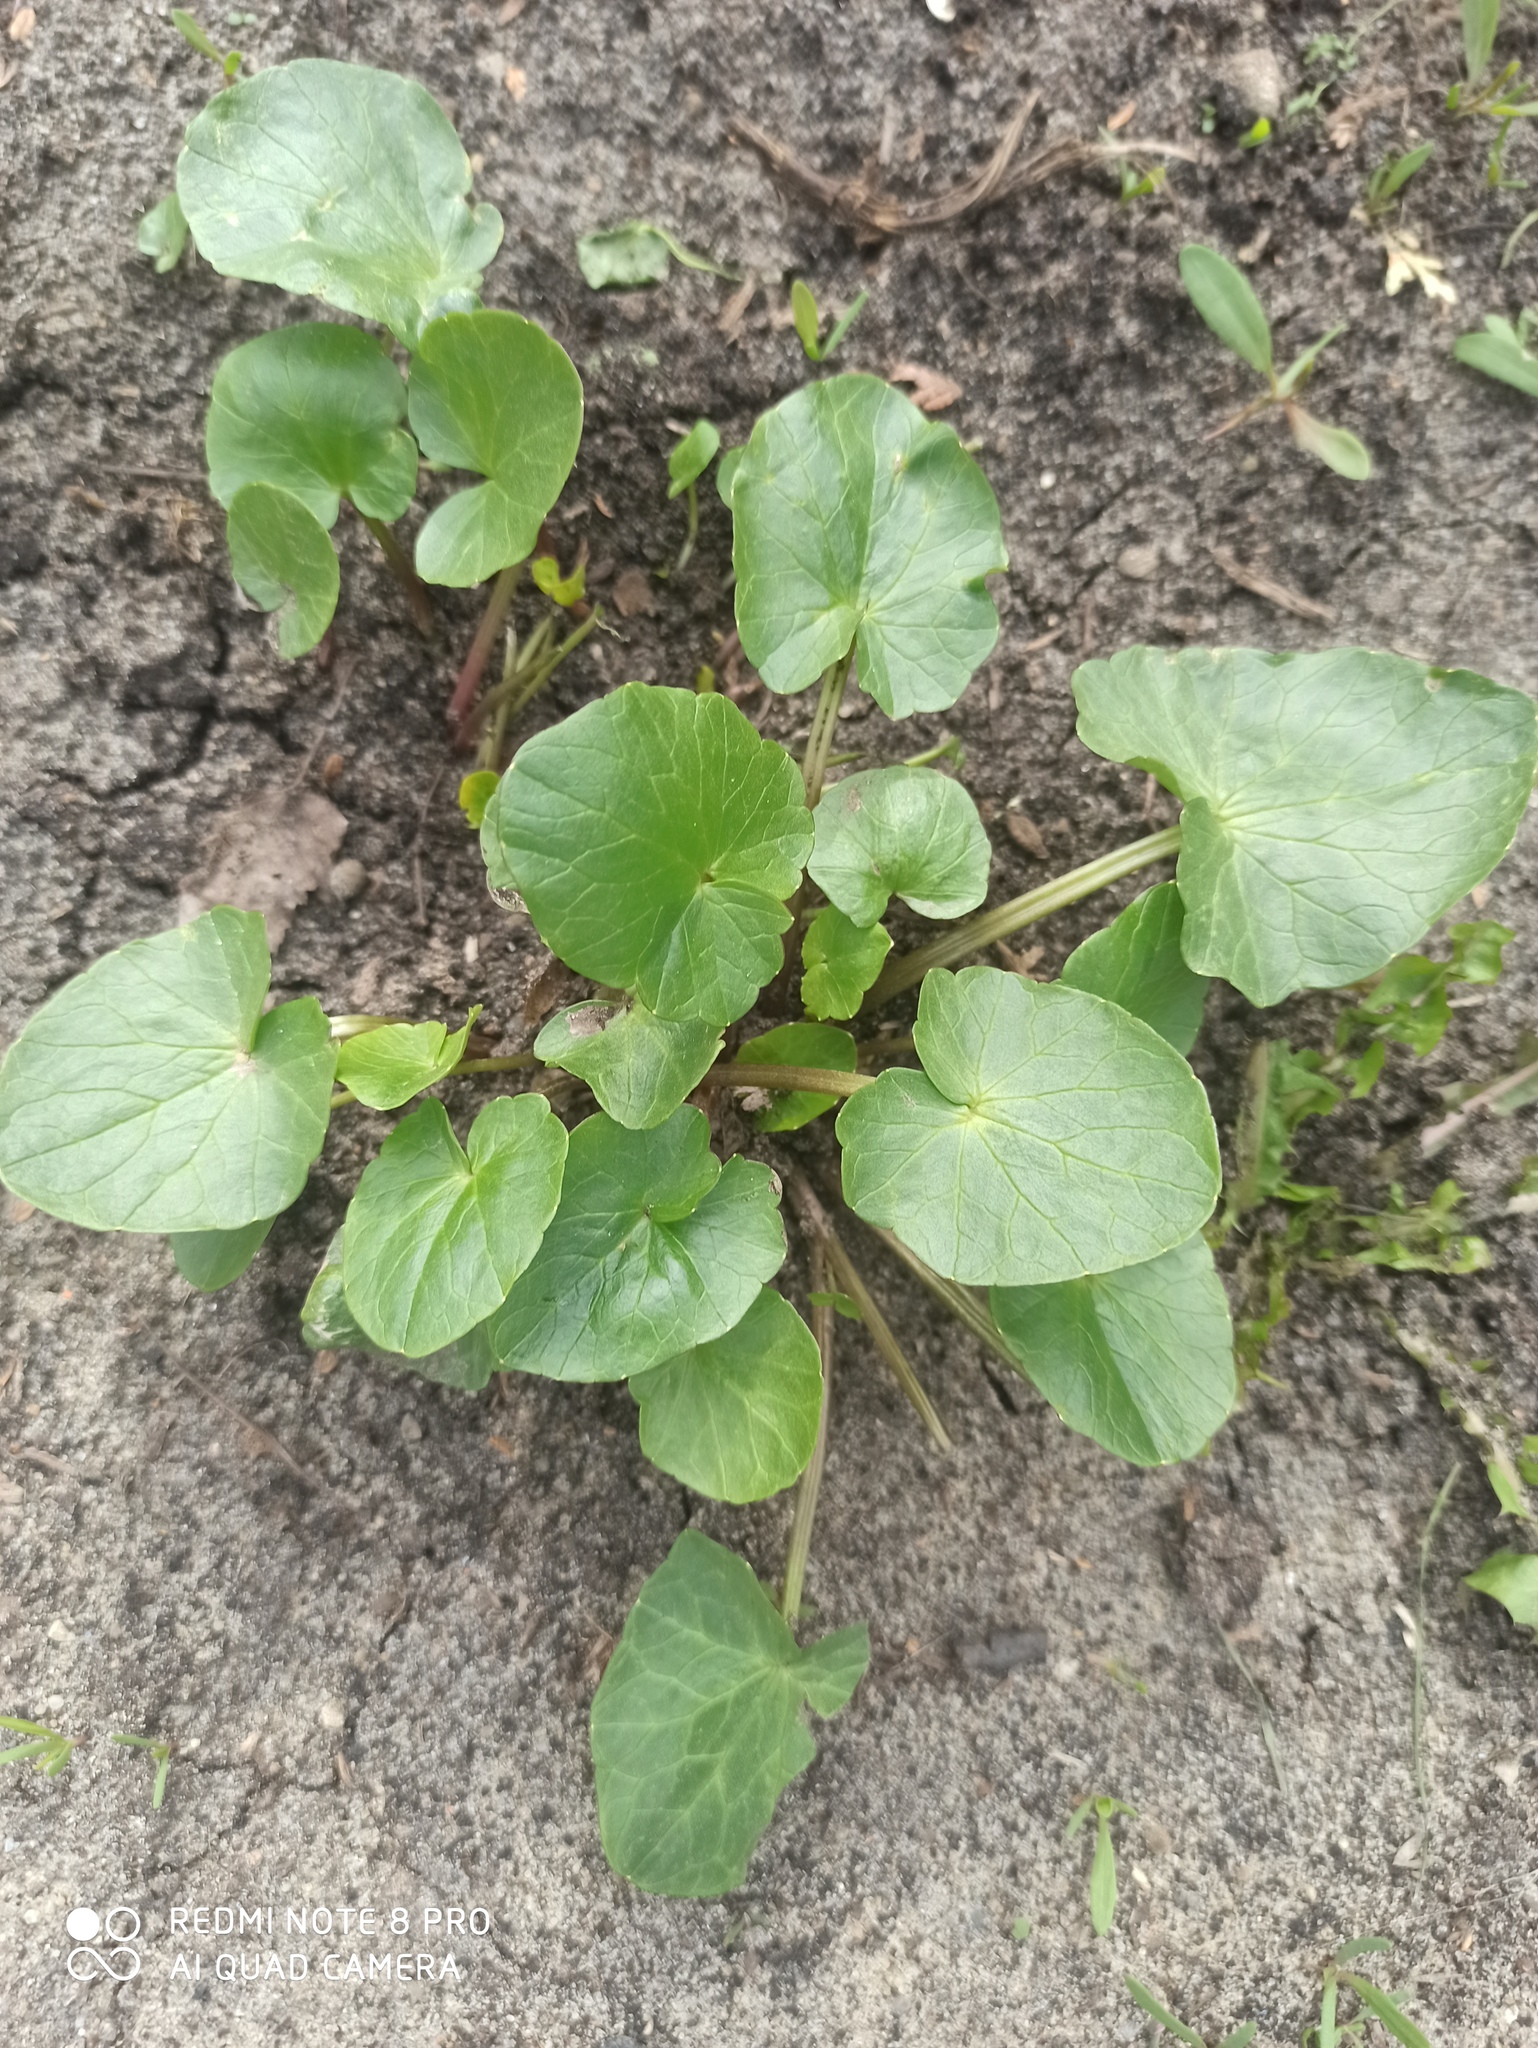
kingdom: Plantae
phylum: Tracheophyta
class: Magnoliopsida
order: Ranunculales
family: Ranunculaceae
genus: Ficaria
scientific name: Ficaria verna
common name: Lesser celandine
